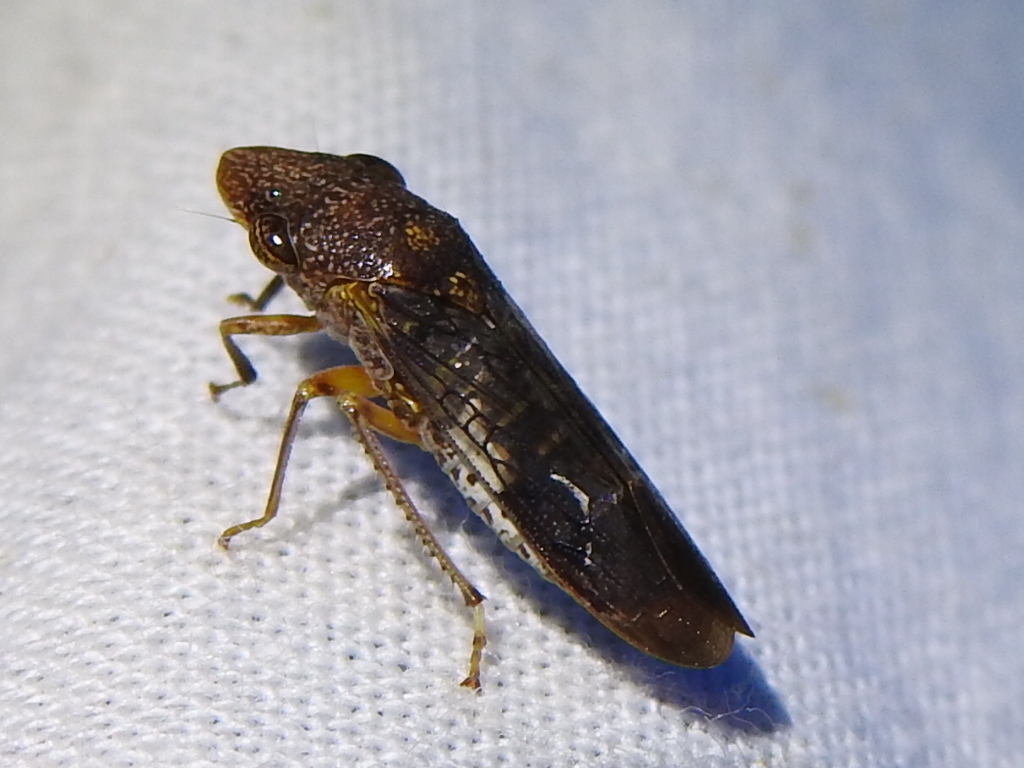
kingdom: Animalia
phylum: Arthropoda
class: Insecta
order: Hemiptera
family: Cicadellidae
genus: Homalodisca
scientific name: Homalodisca vitripennis
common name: Glassy-winged sharpshooter
